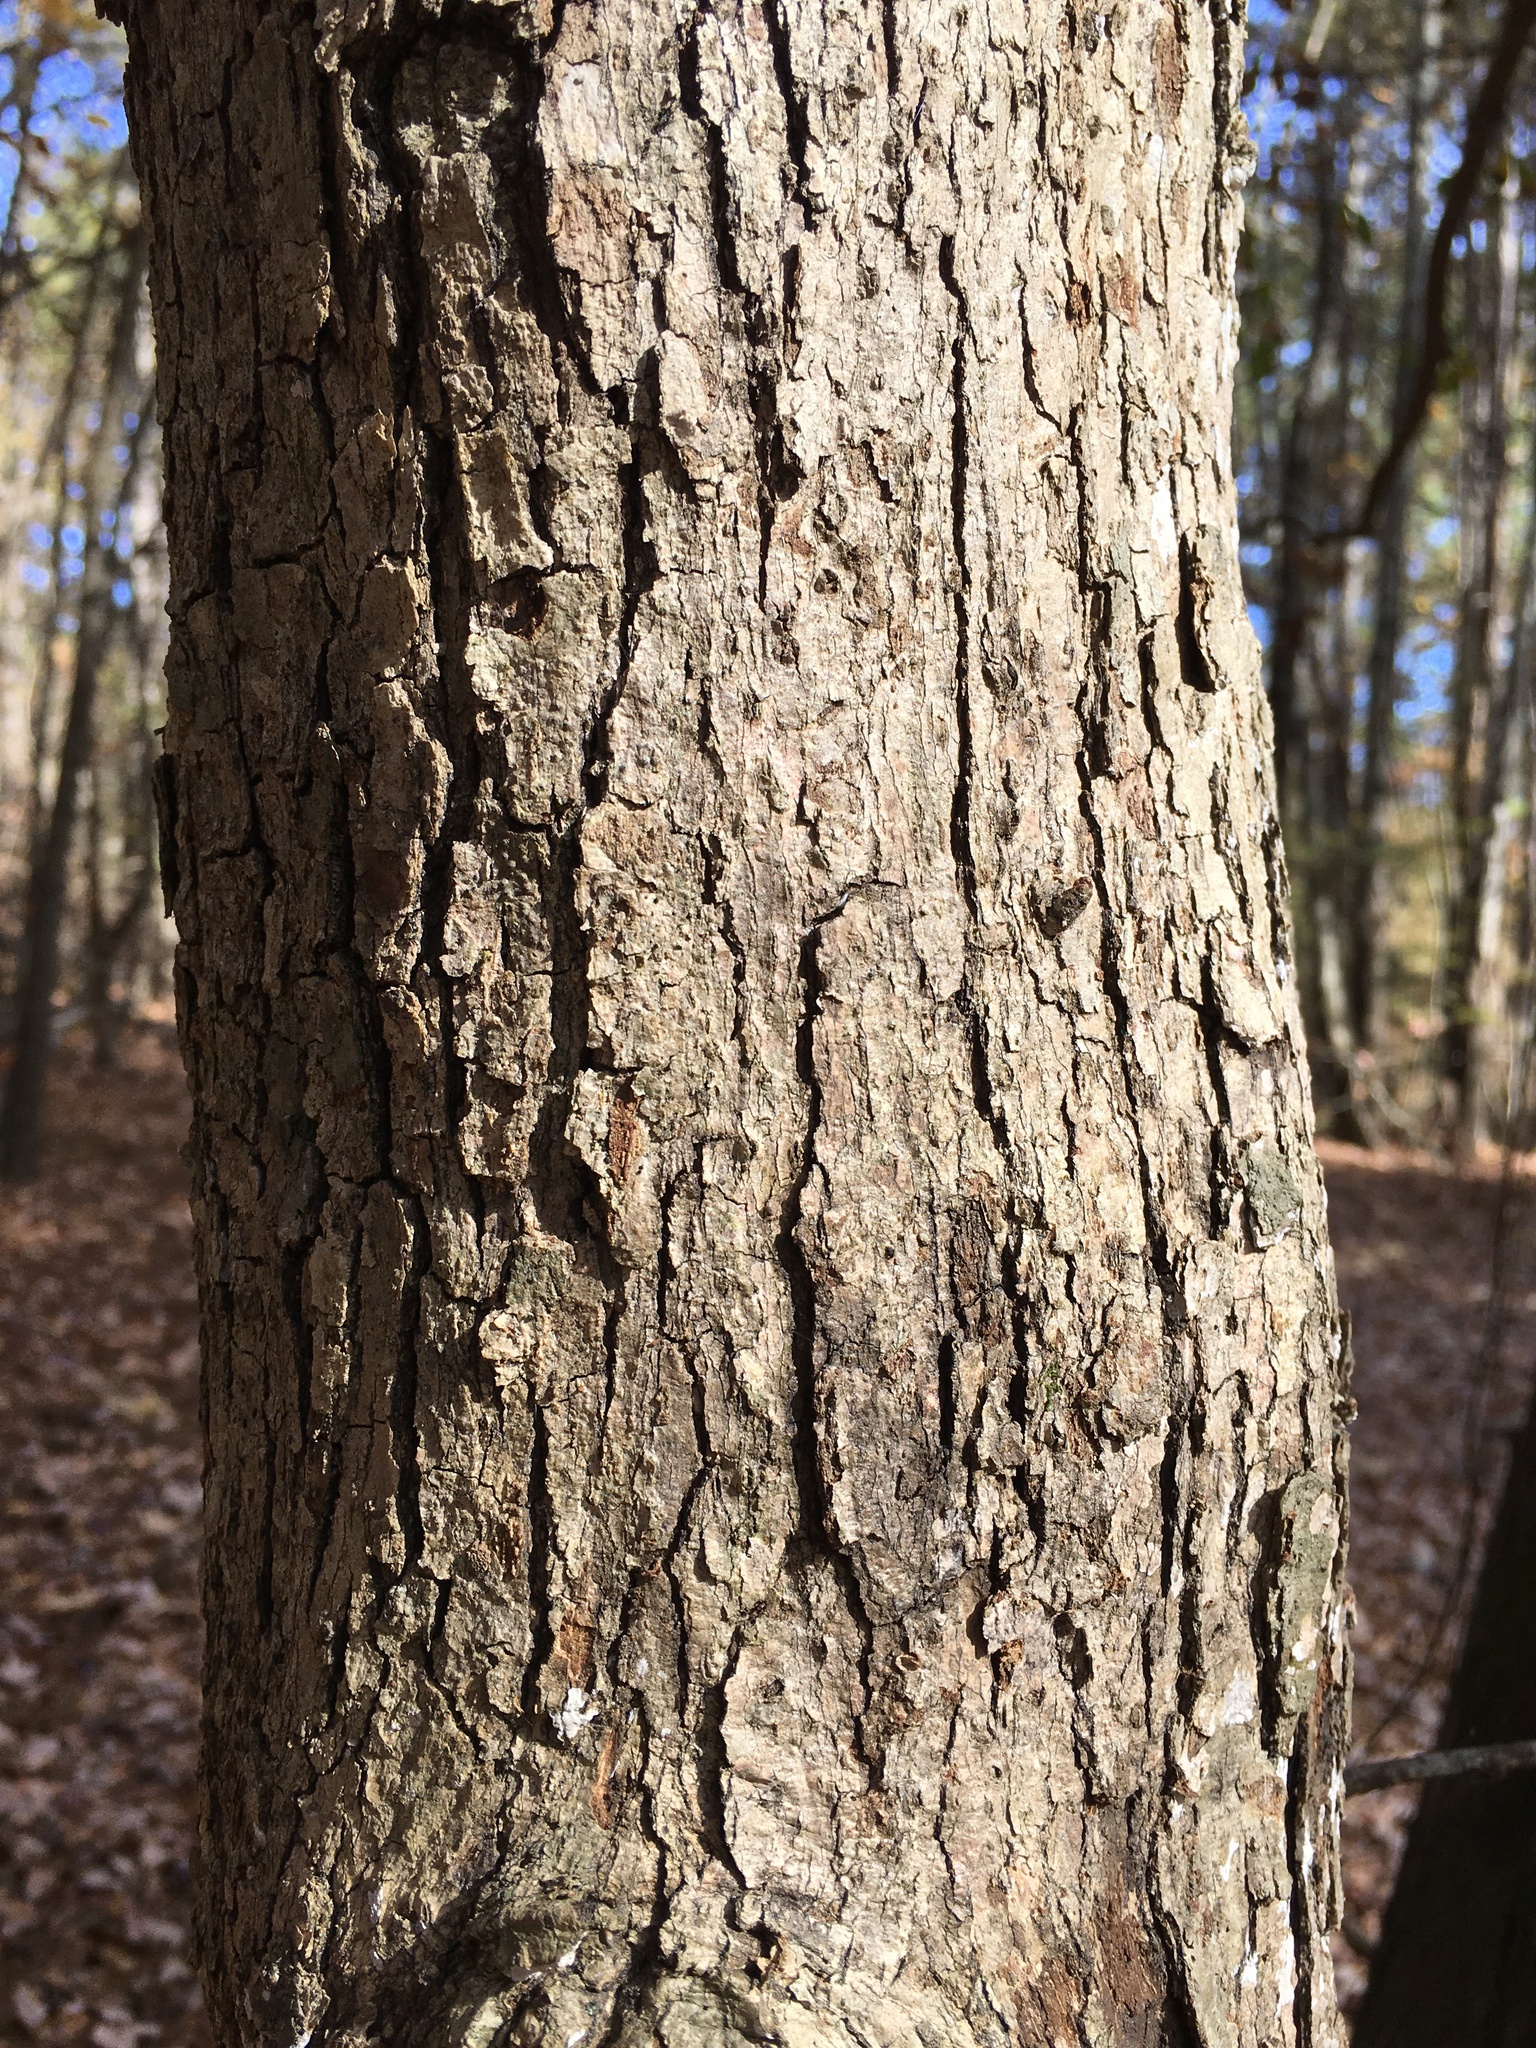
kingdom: Plantae
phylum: Tracheophyta
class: Magnoliopsida
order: Fagales
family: Fagaceae
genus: Quercus
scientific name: Quercus alba
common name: White oak
